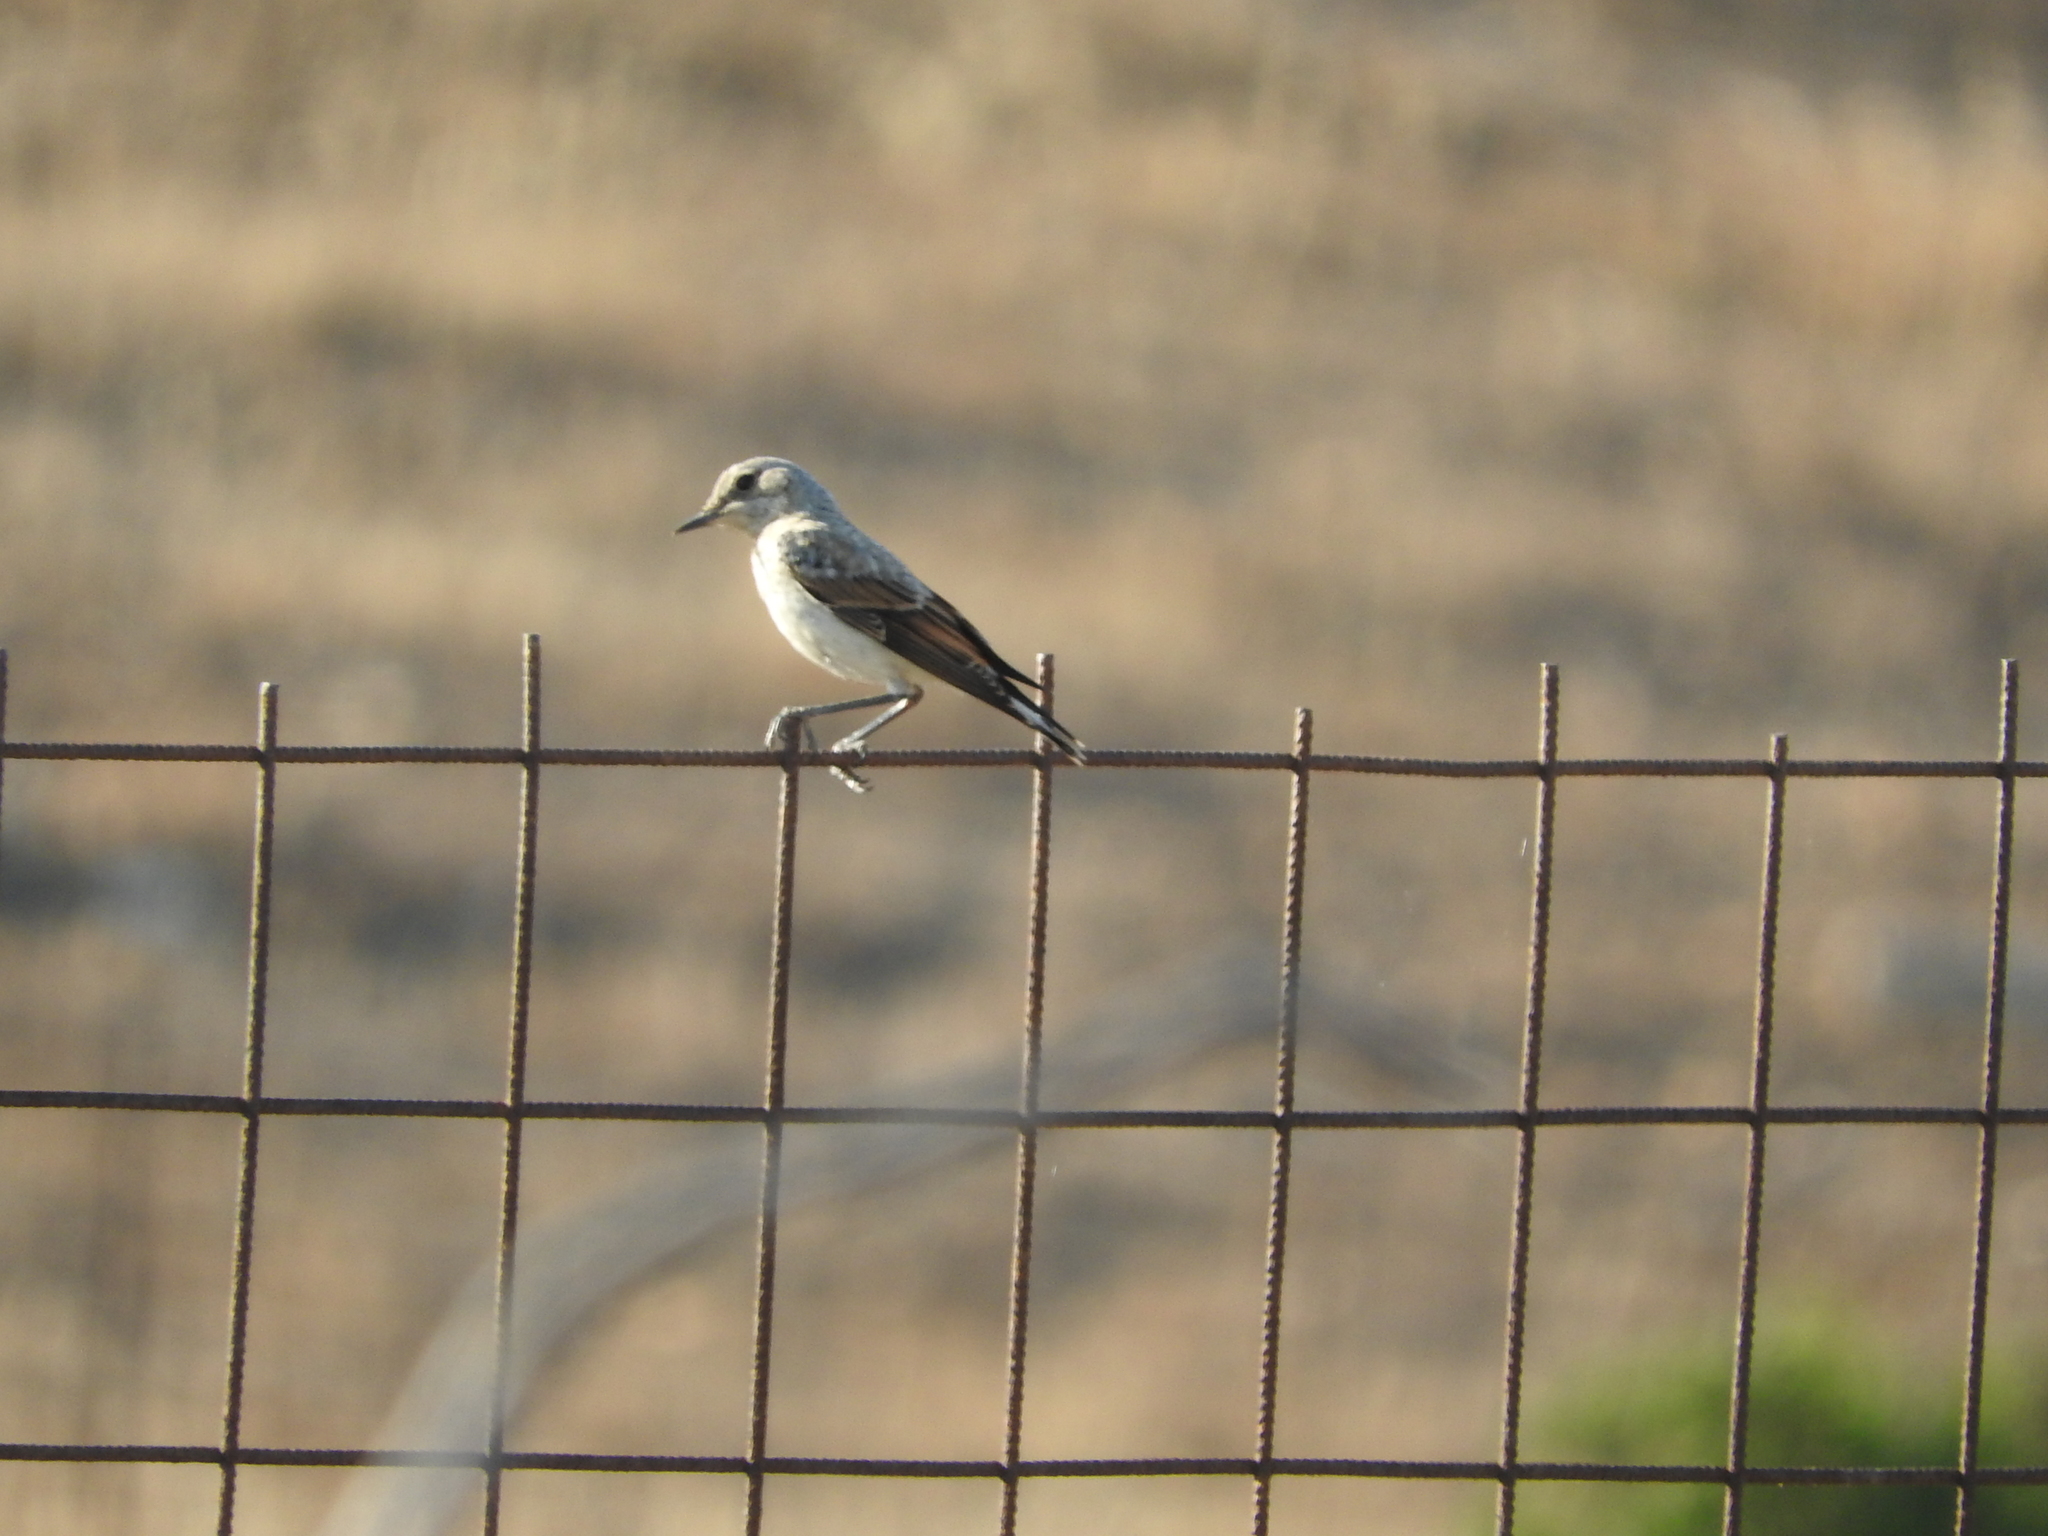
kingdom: Animalia
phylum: Chordata
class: Aves
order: Passeriformes
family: Muscicapidae
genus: Oenanthe
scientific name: Oenanthe hispanica
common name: Black-eared wheatear
